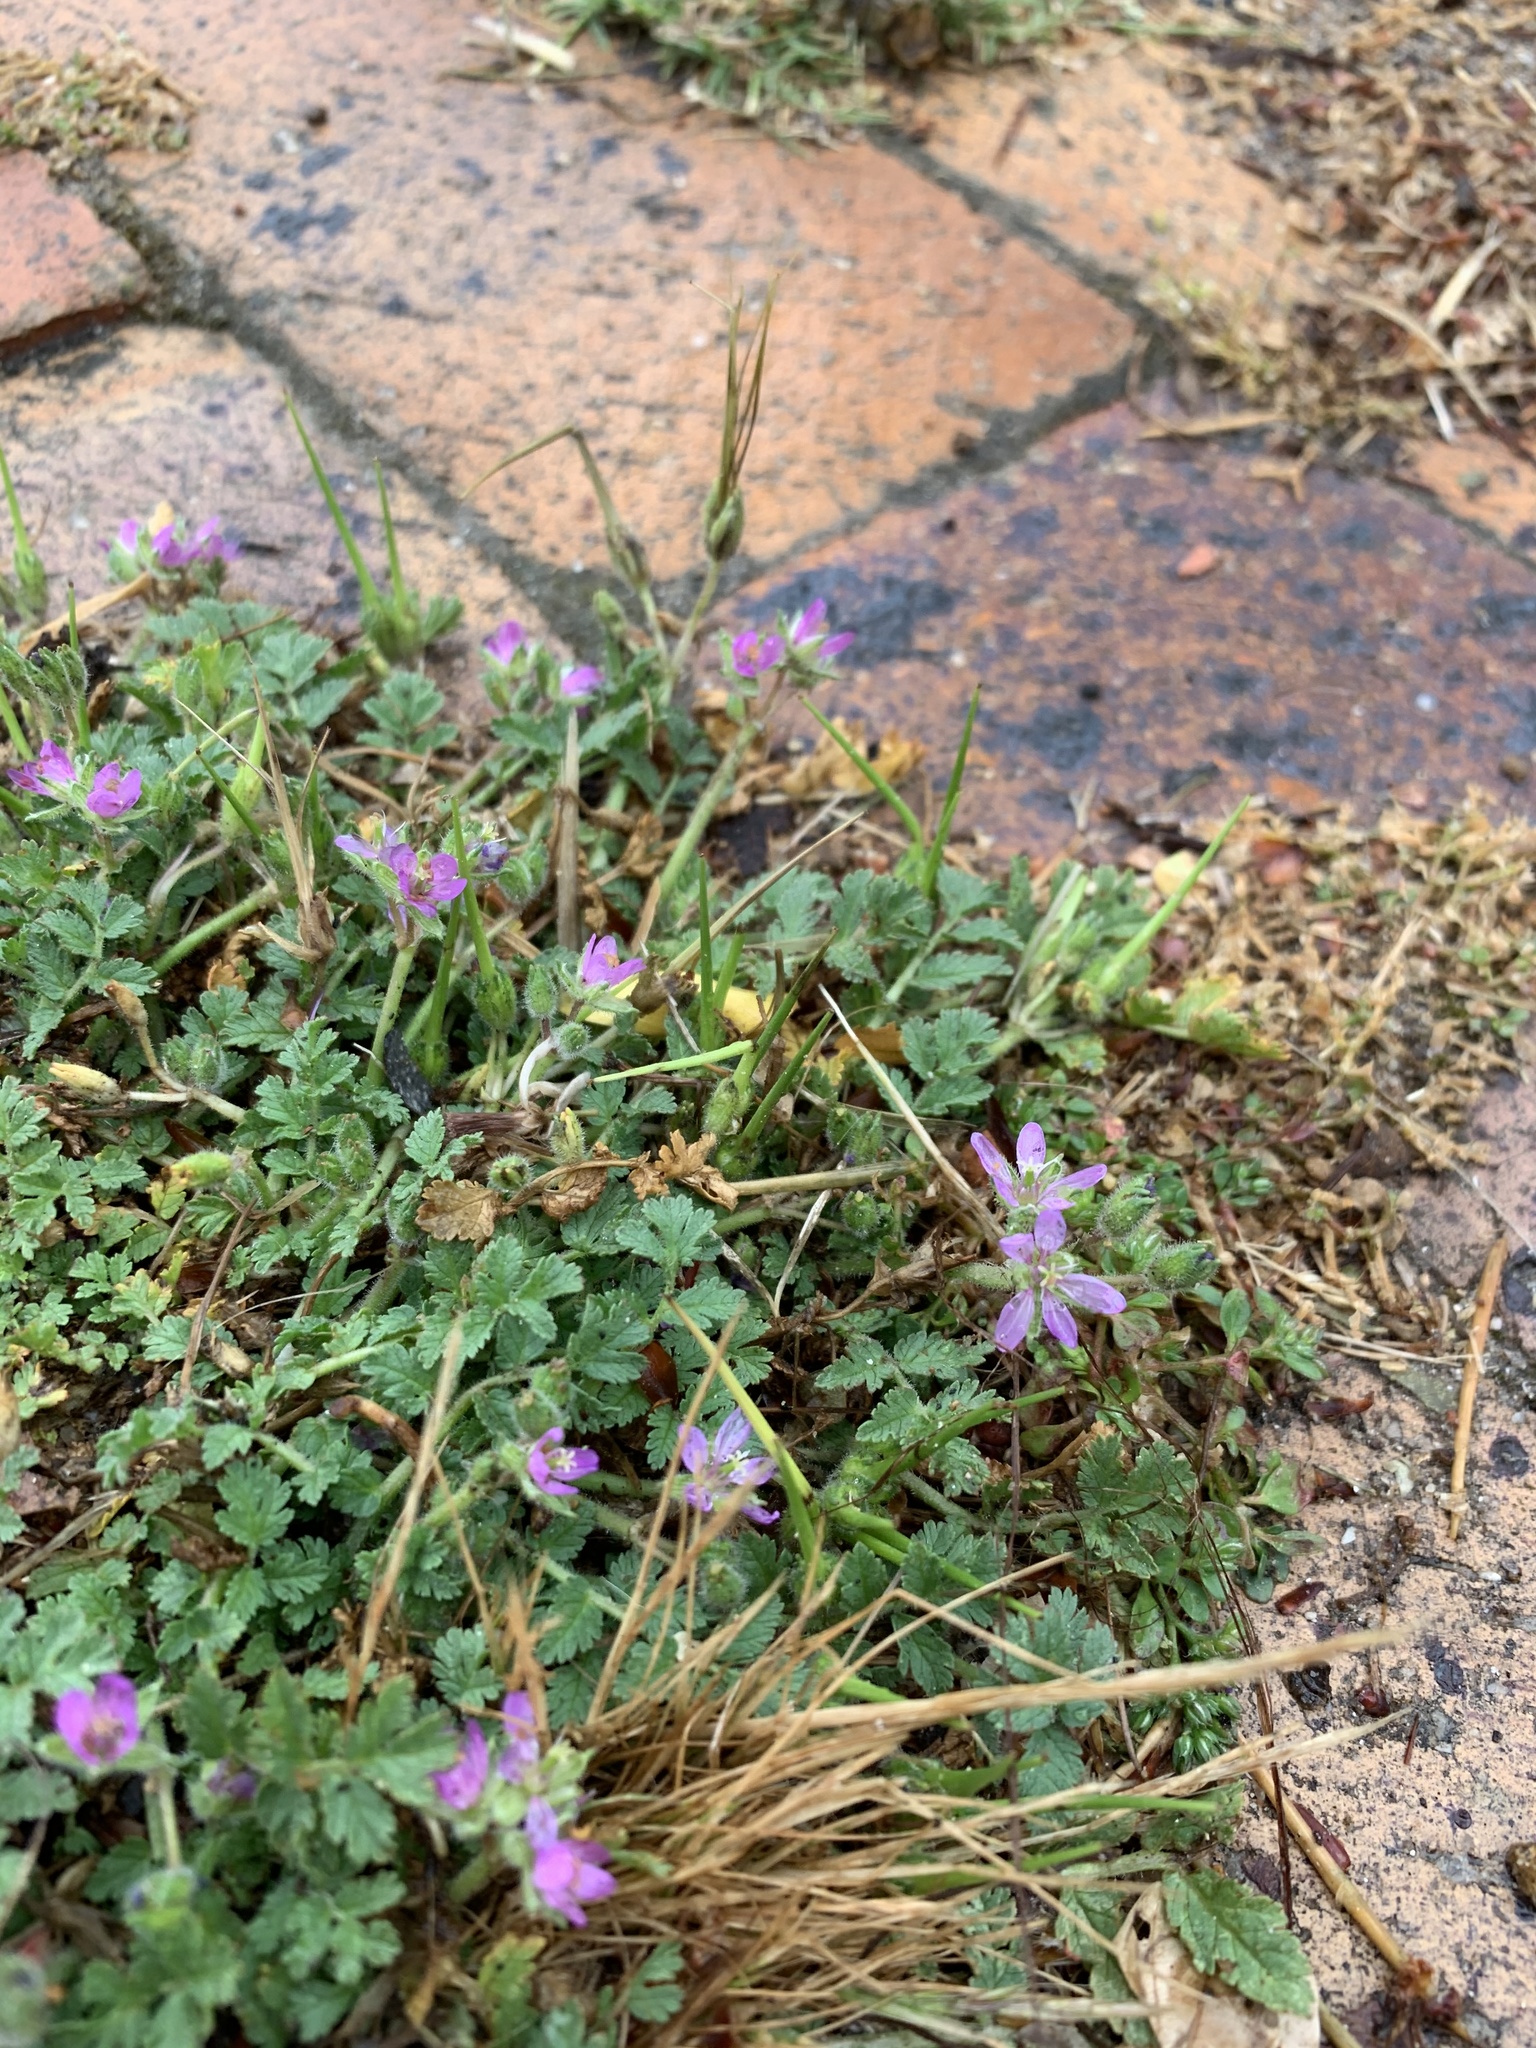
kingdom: Plantae
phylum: Tracheophyta
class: Magnoliopsida
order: Geraniales
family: Geraniaceae
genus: Erodium
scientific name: Erodium moschatum
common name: Musk stork's-bill
